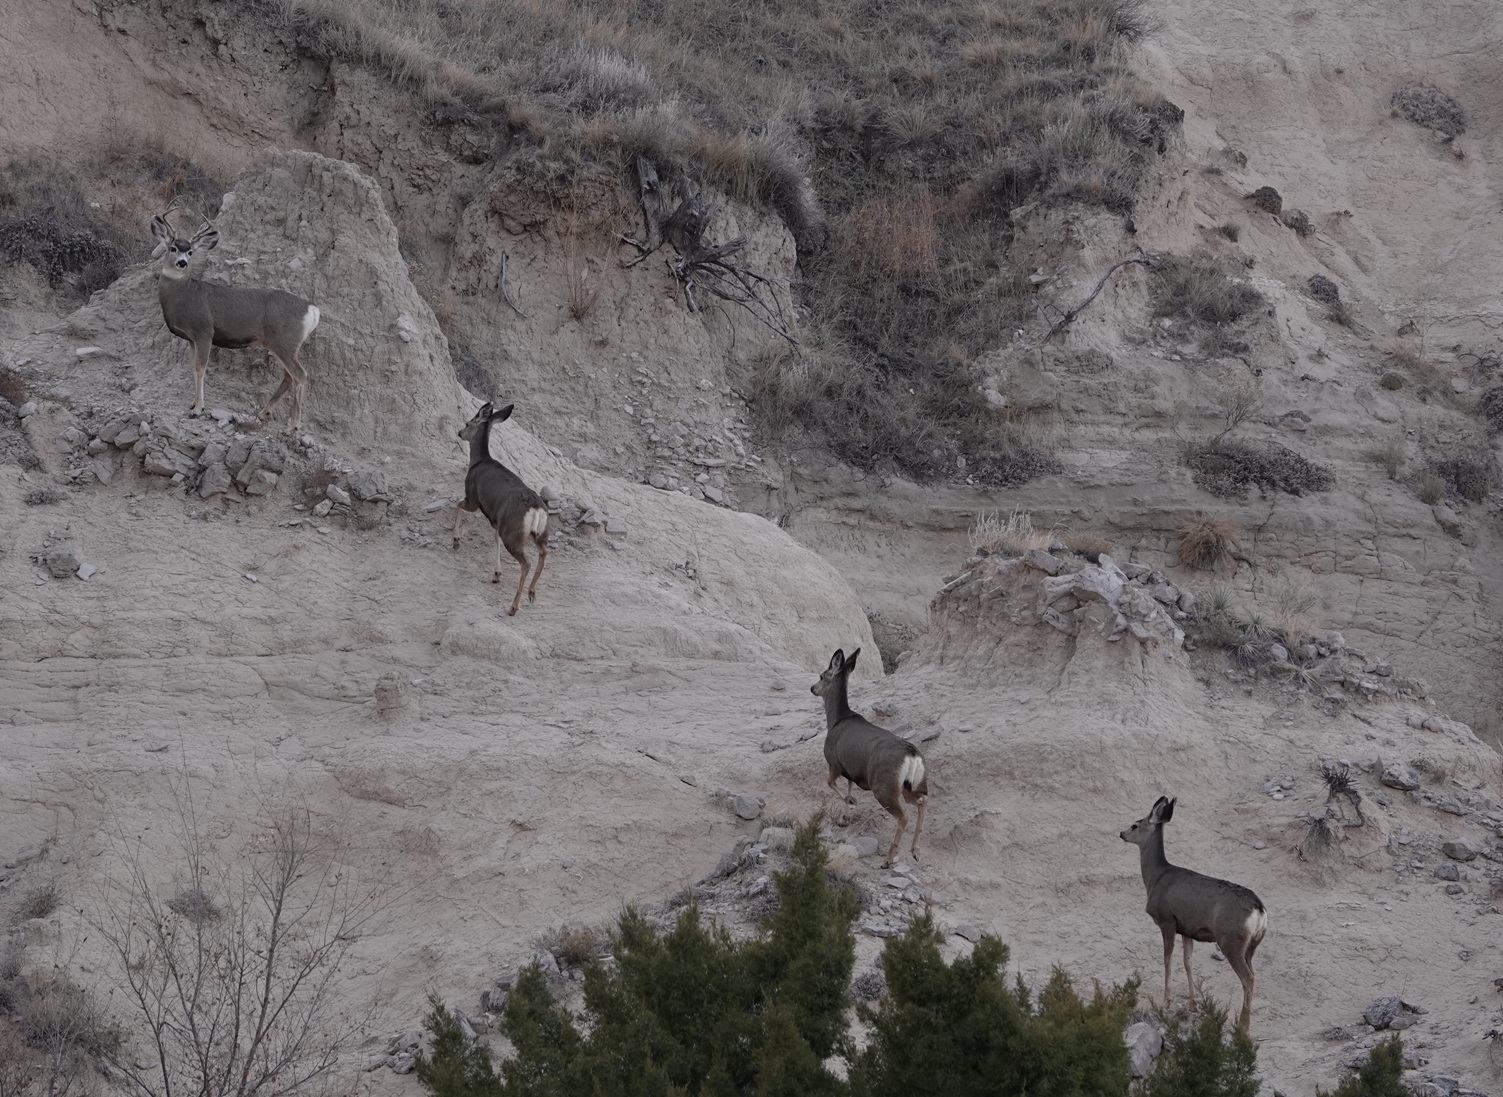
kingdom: Animalia
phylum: Chordata
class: Mammalia
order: Artiodactyla
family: Cervidae
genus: Odocoileus
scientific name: Odocoileus hemionus
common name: Mule deer
